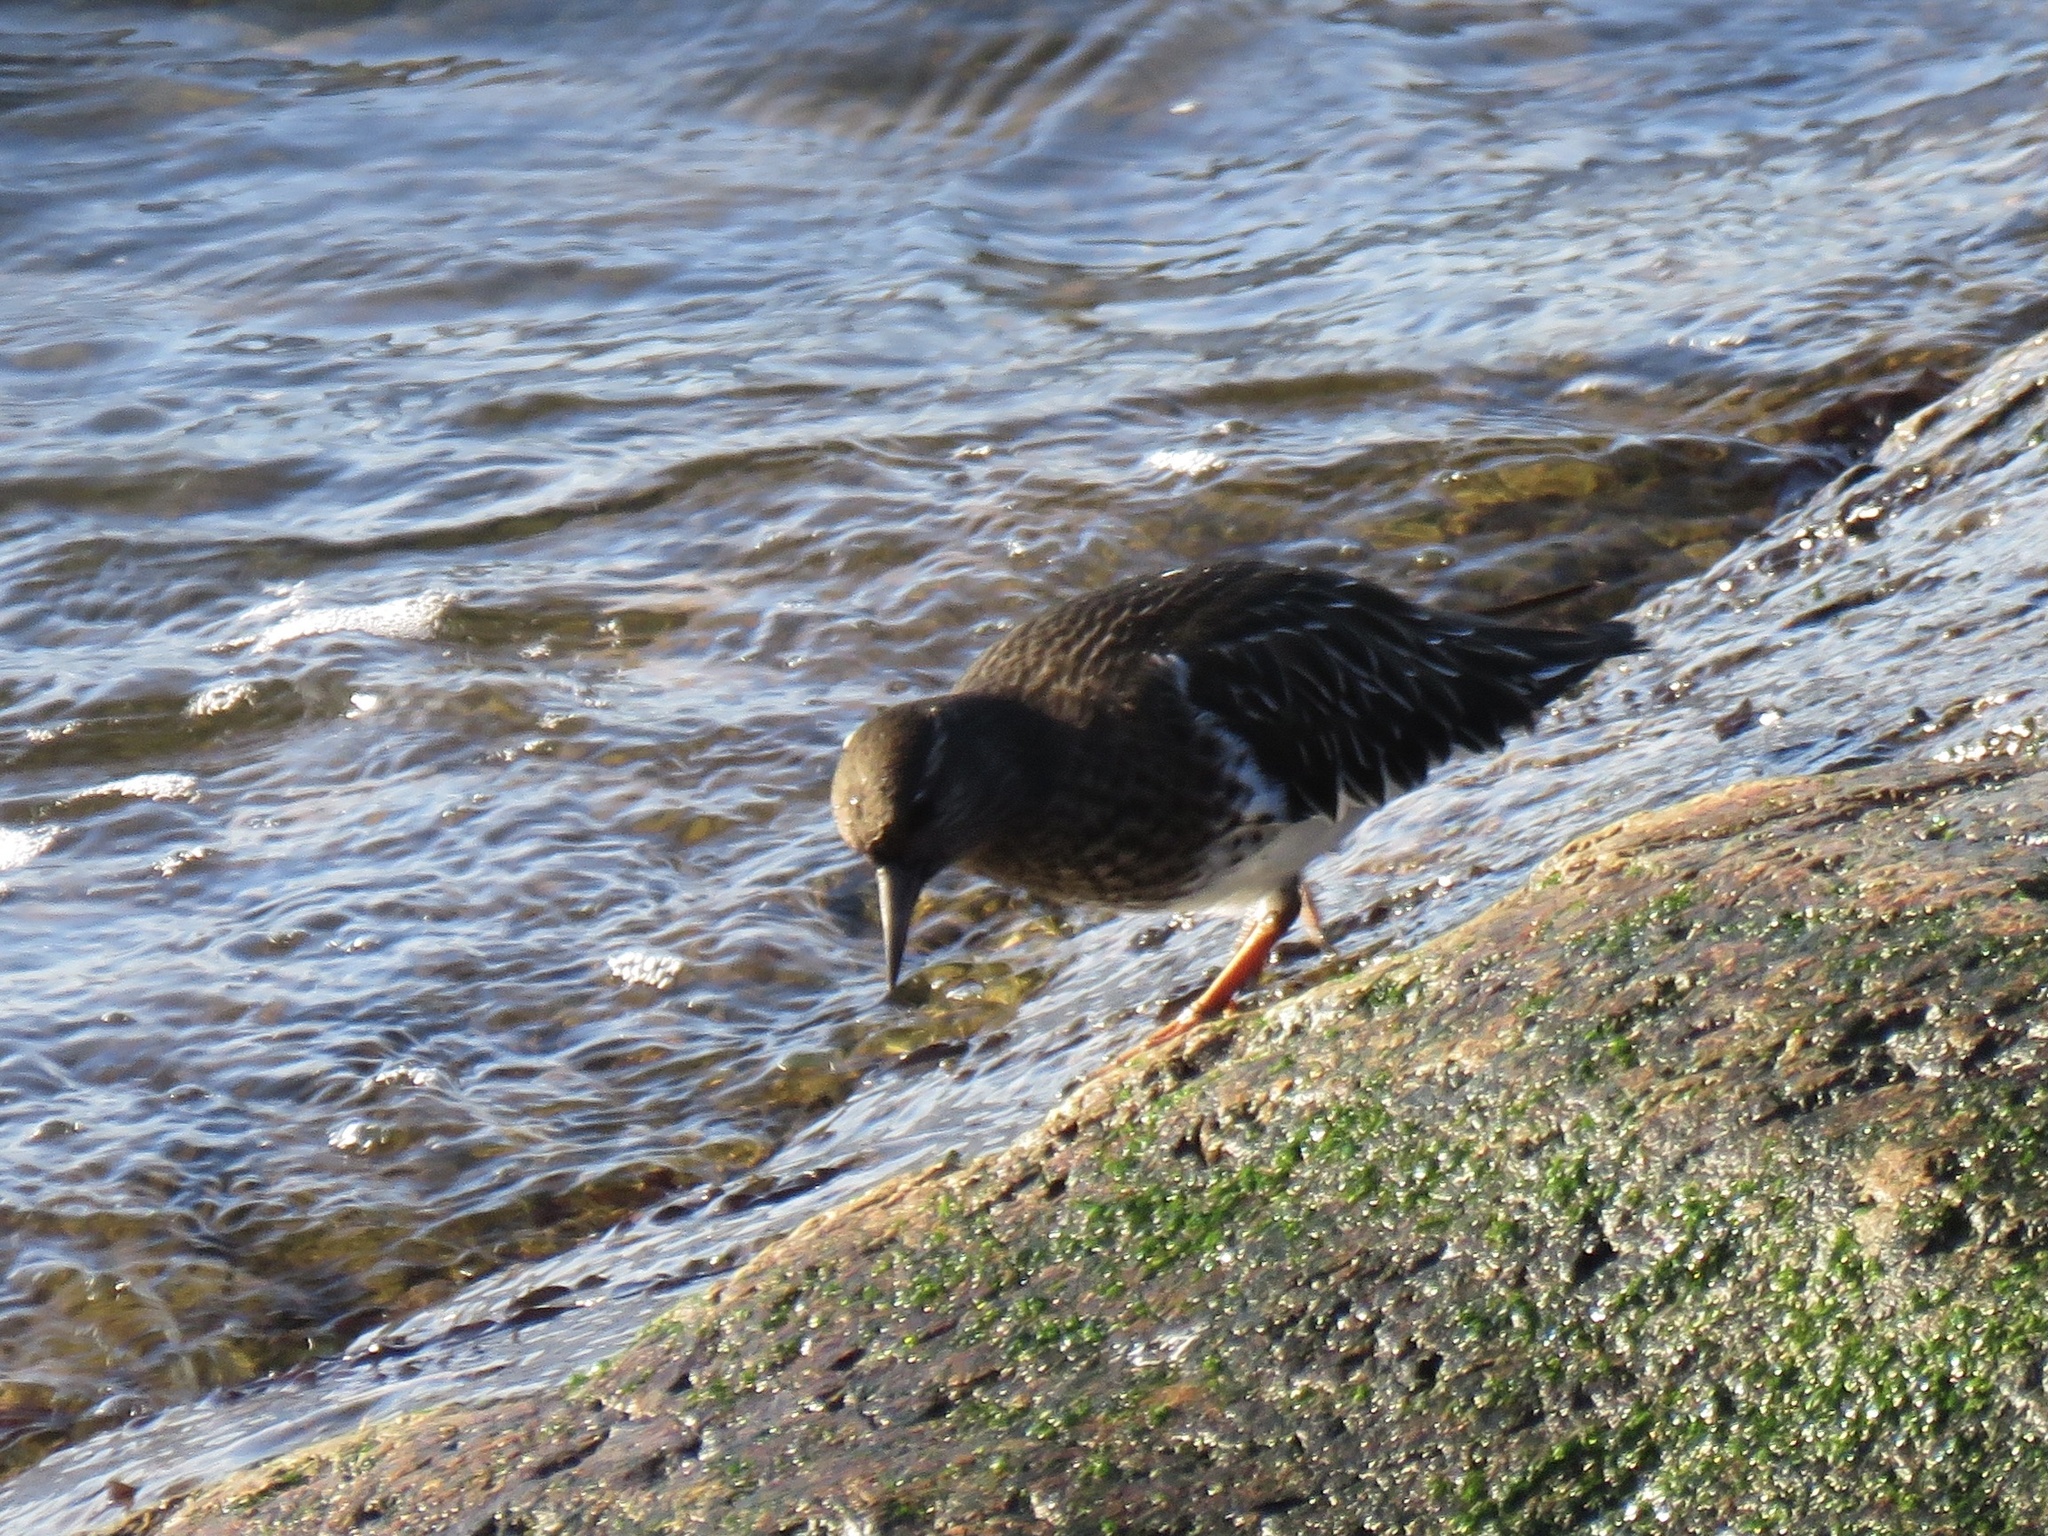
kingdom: Animalia
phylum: Chordata
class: Aves
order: Charadriiformes
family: Scolopacidae
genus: Arenaria
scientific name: Arenaria melanocephala
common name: Black turnstone
